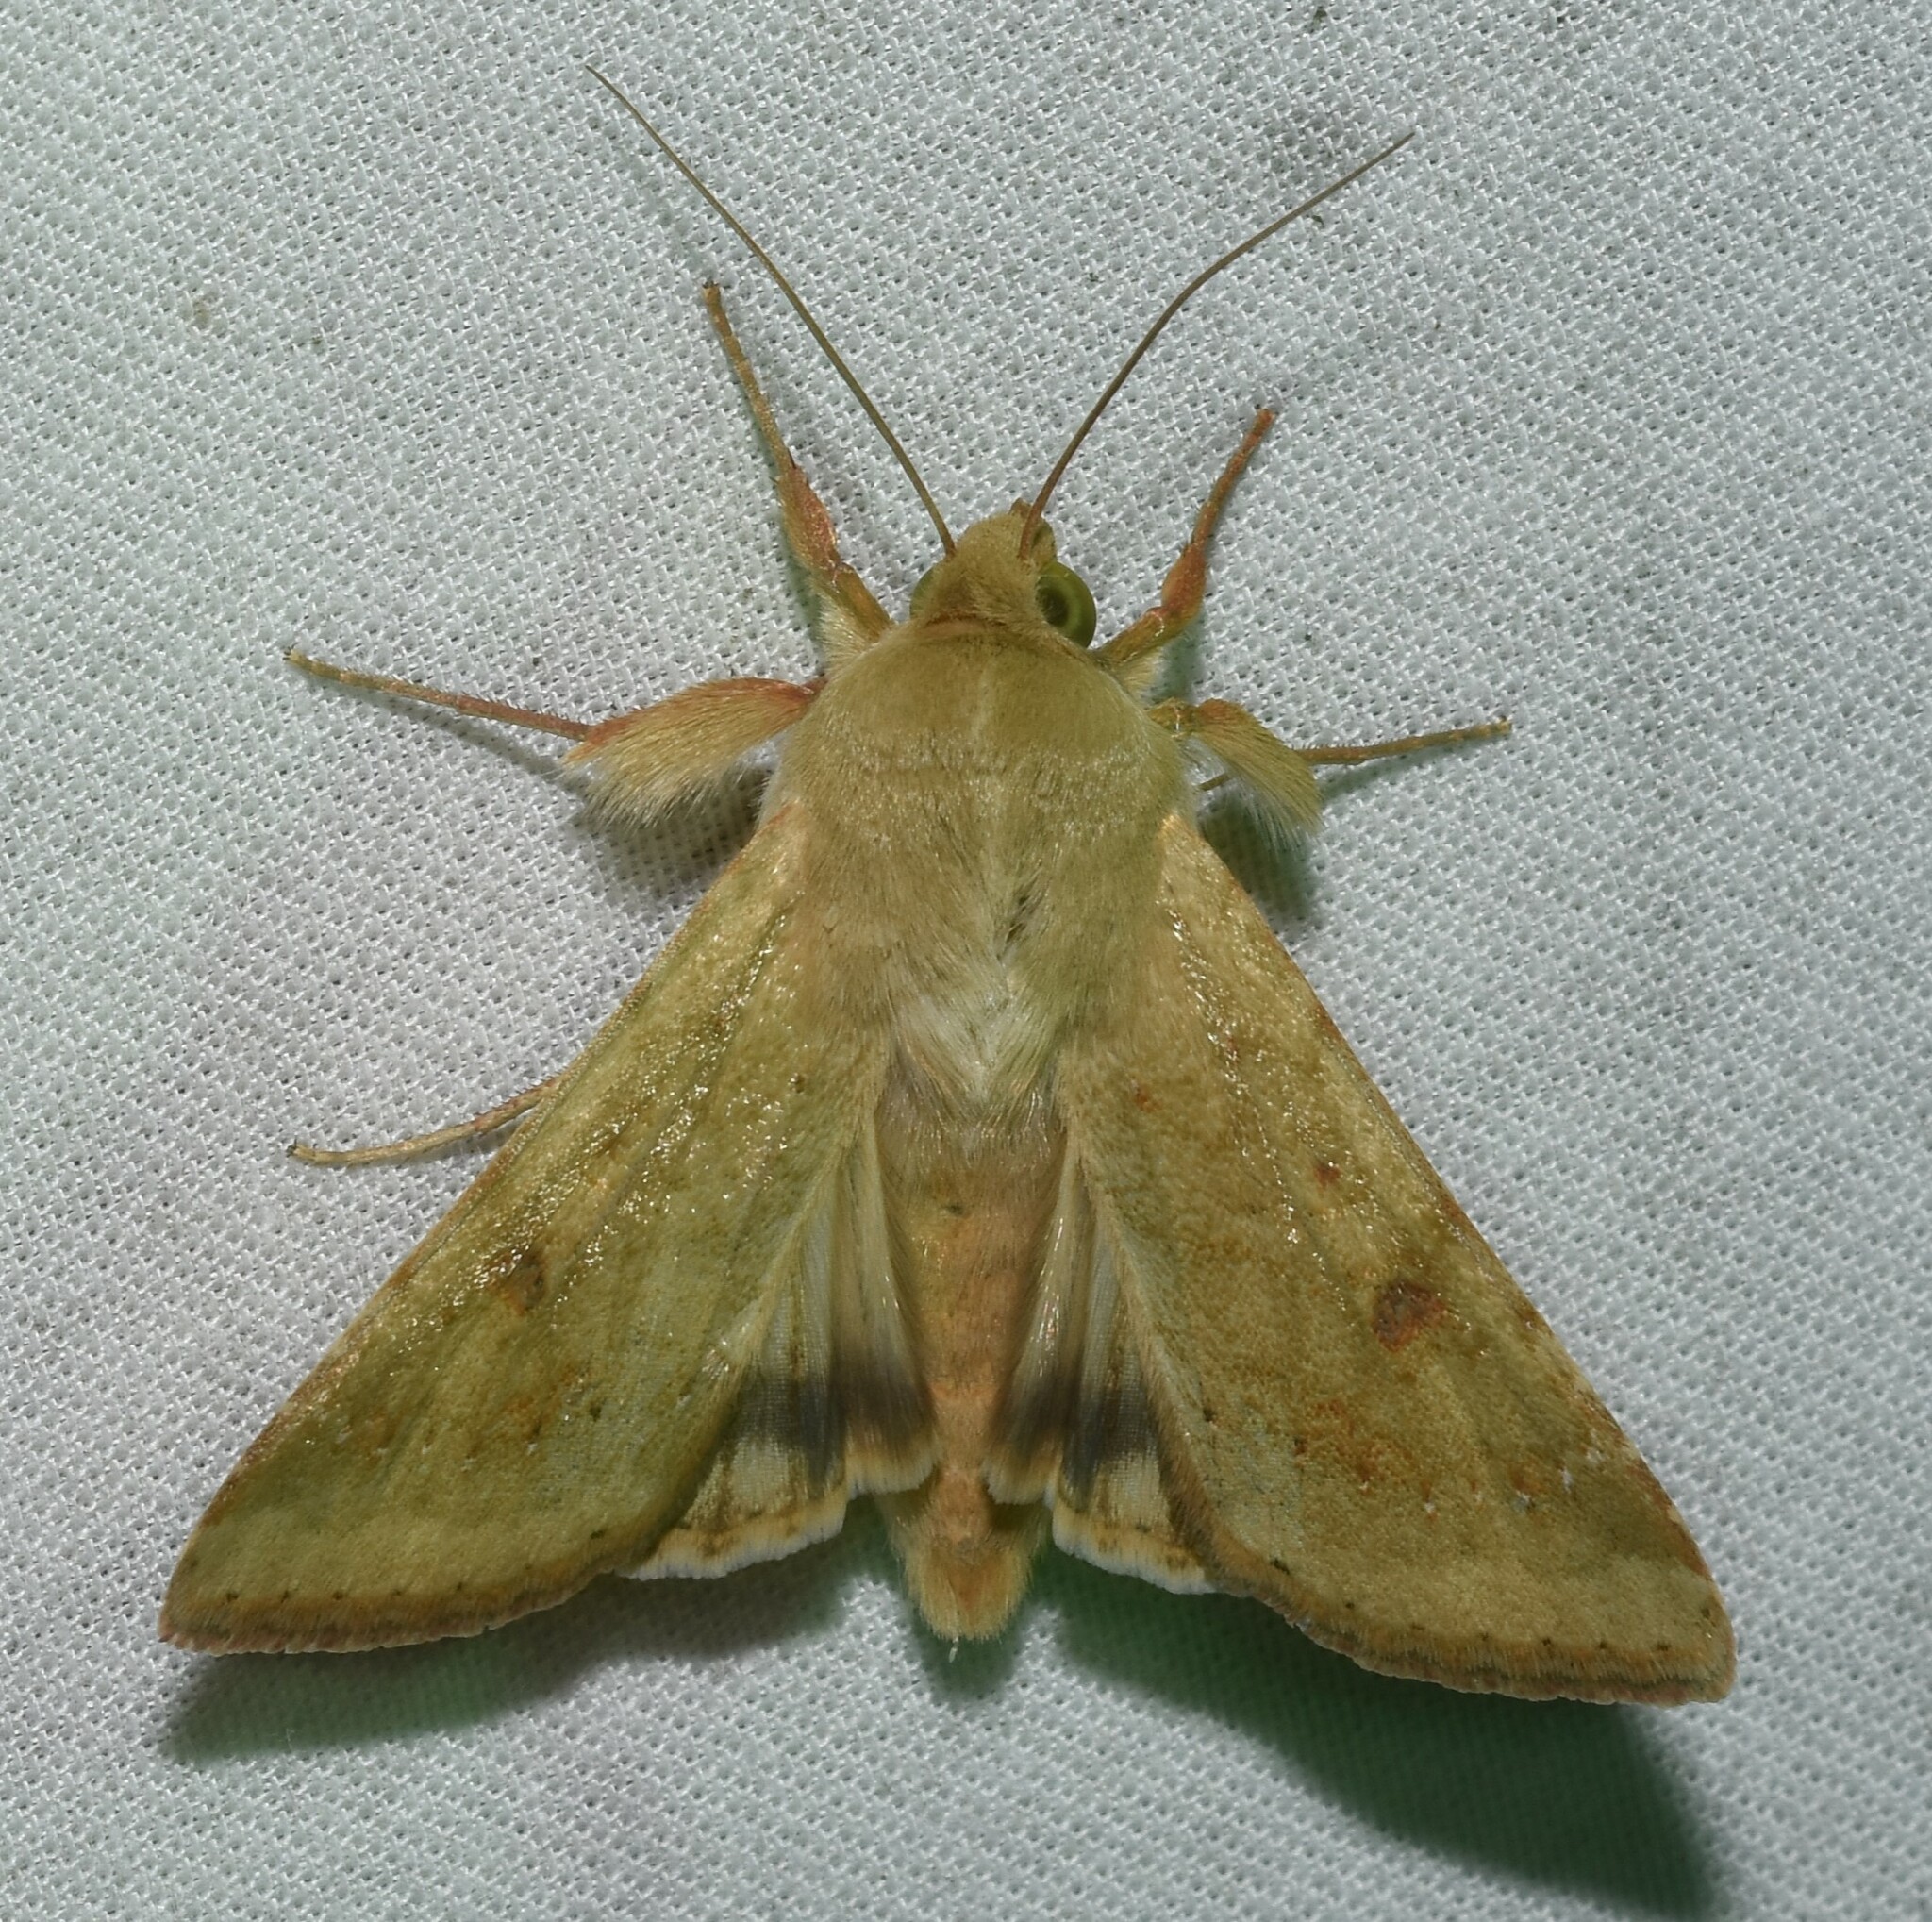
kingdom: Animalia
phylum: Arthropoda
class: Insecta
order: Lepidoptera
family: Noctuidae
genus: Helicoverpa
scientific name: Helicoverpa zea
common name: Bollworm
